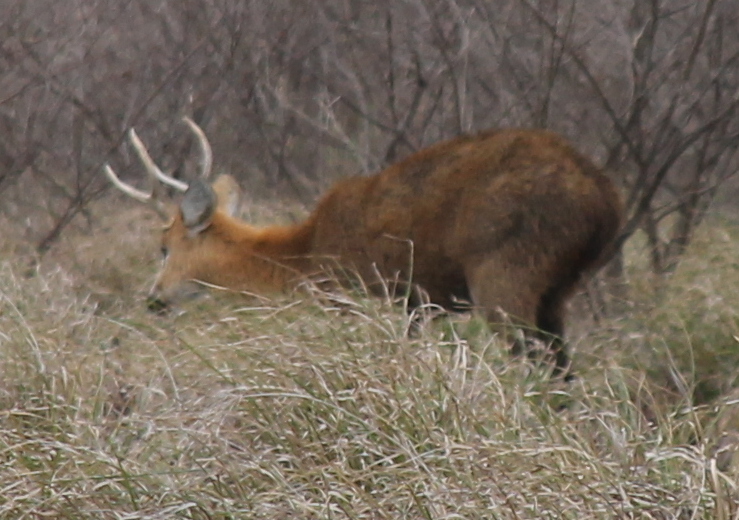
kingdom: Animalia
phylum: Chordata
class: Mammalia
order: Artiodactyla
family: Cervidae
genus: Blastocerus
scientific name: Blastocerus dichotomus
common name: Marsh deer
